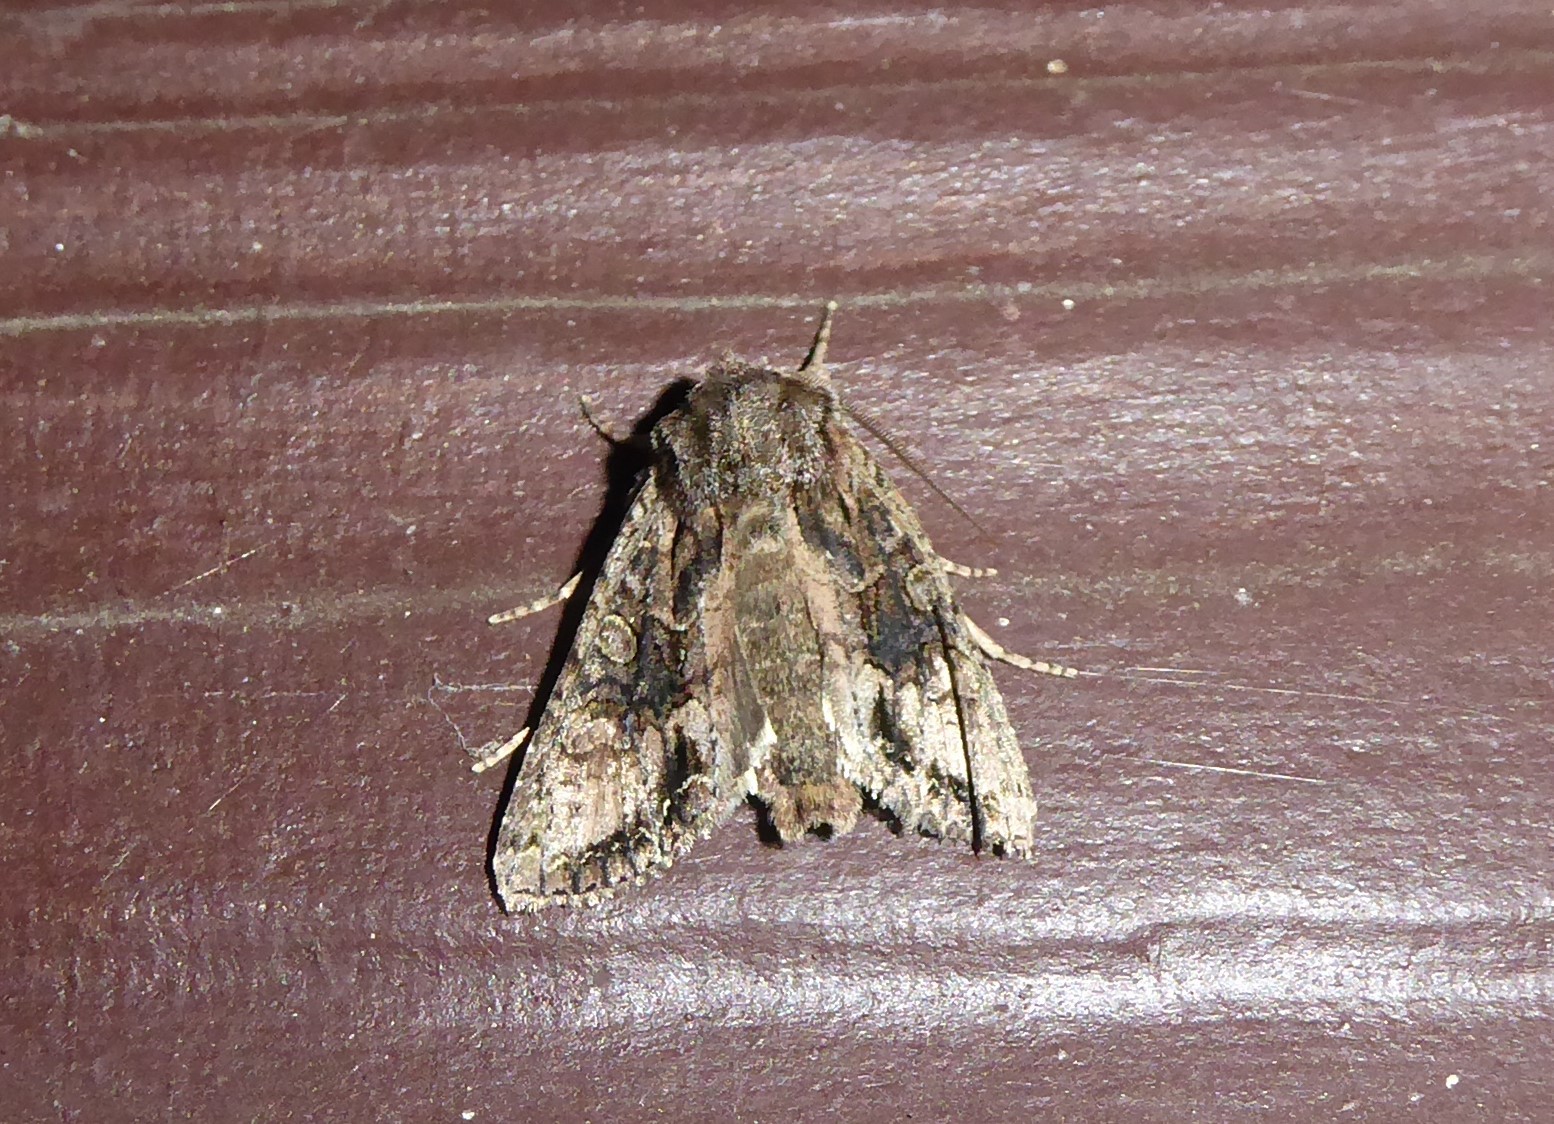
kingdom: Animalia
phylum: Arthropoda
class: Insecta
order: Lepidoptera
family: Noctuidae
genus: Ichneutica
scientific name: Ichneutica mutans
